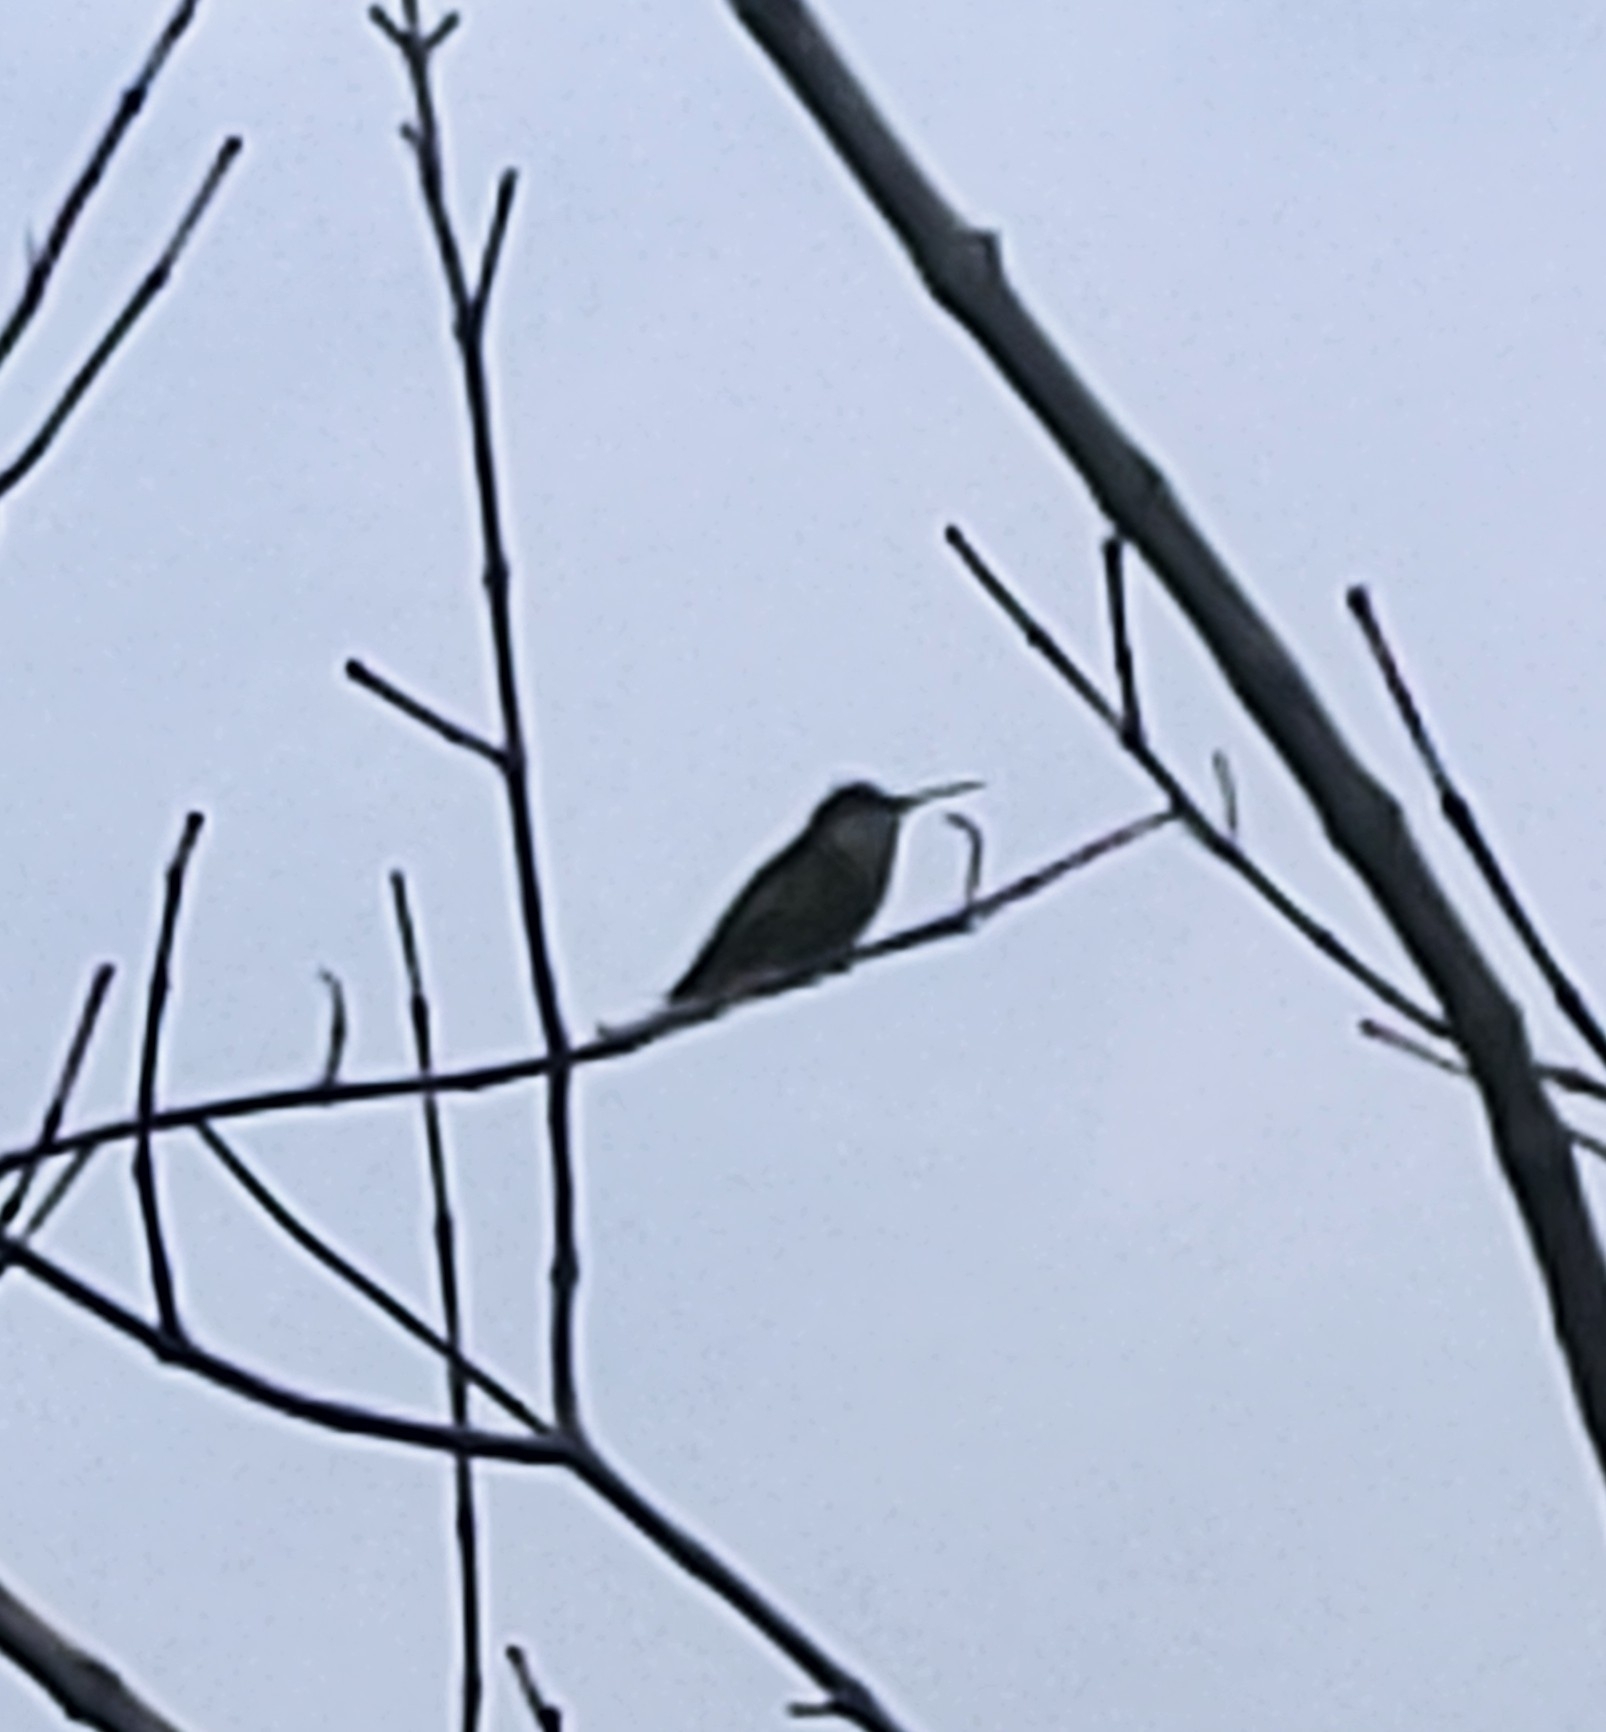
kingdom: Animalia
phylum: Chordata
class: Aves
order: Apodiformes
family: Trochilidae
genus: Archilochus
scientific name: Archilochus colubris
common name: Ruby-throated hummingbird
